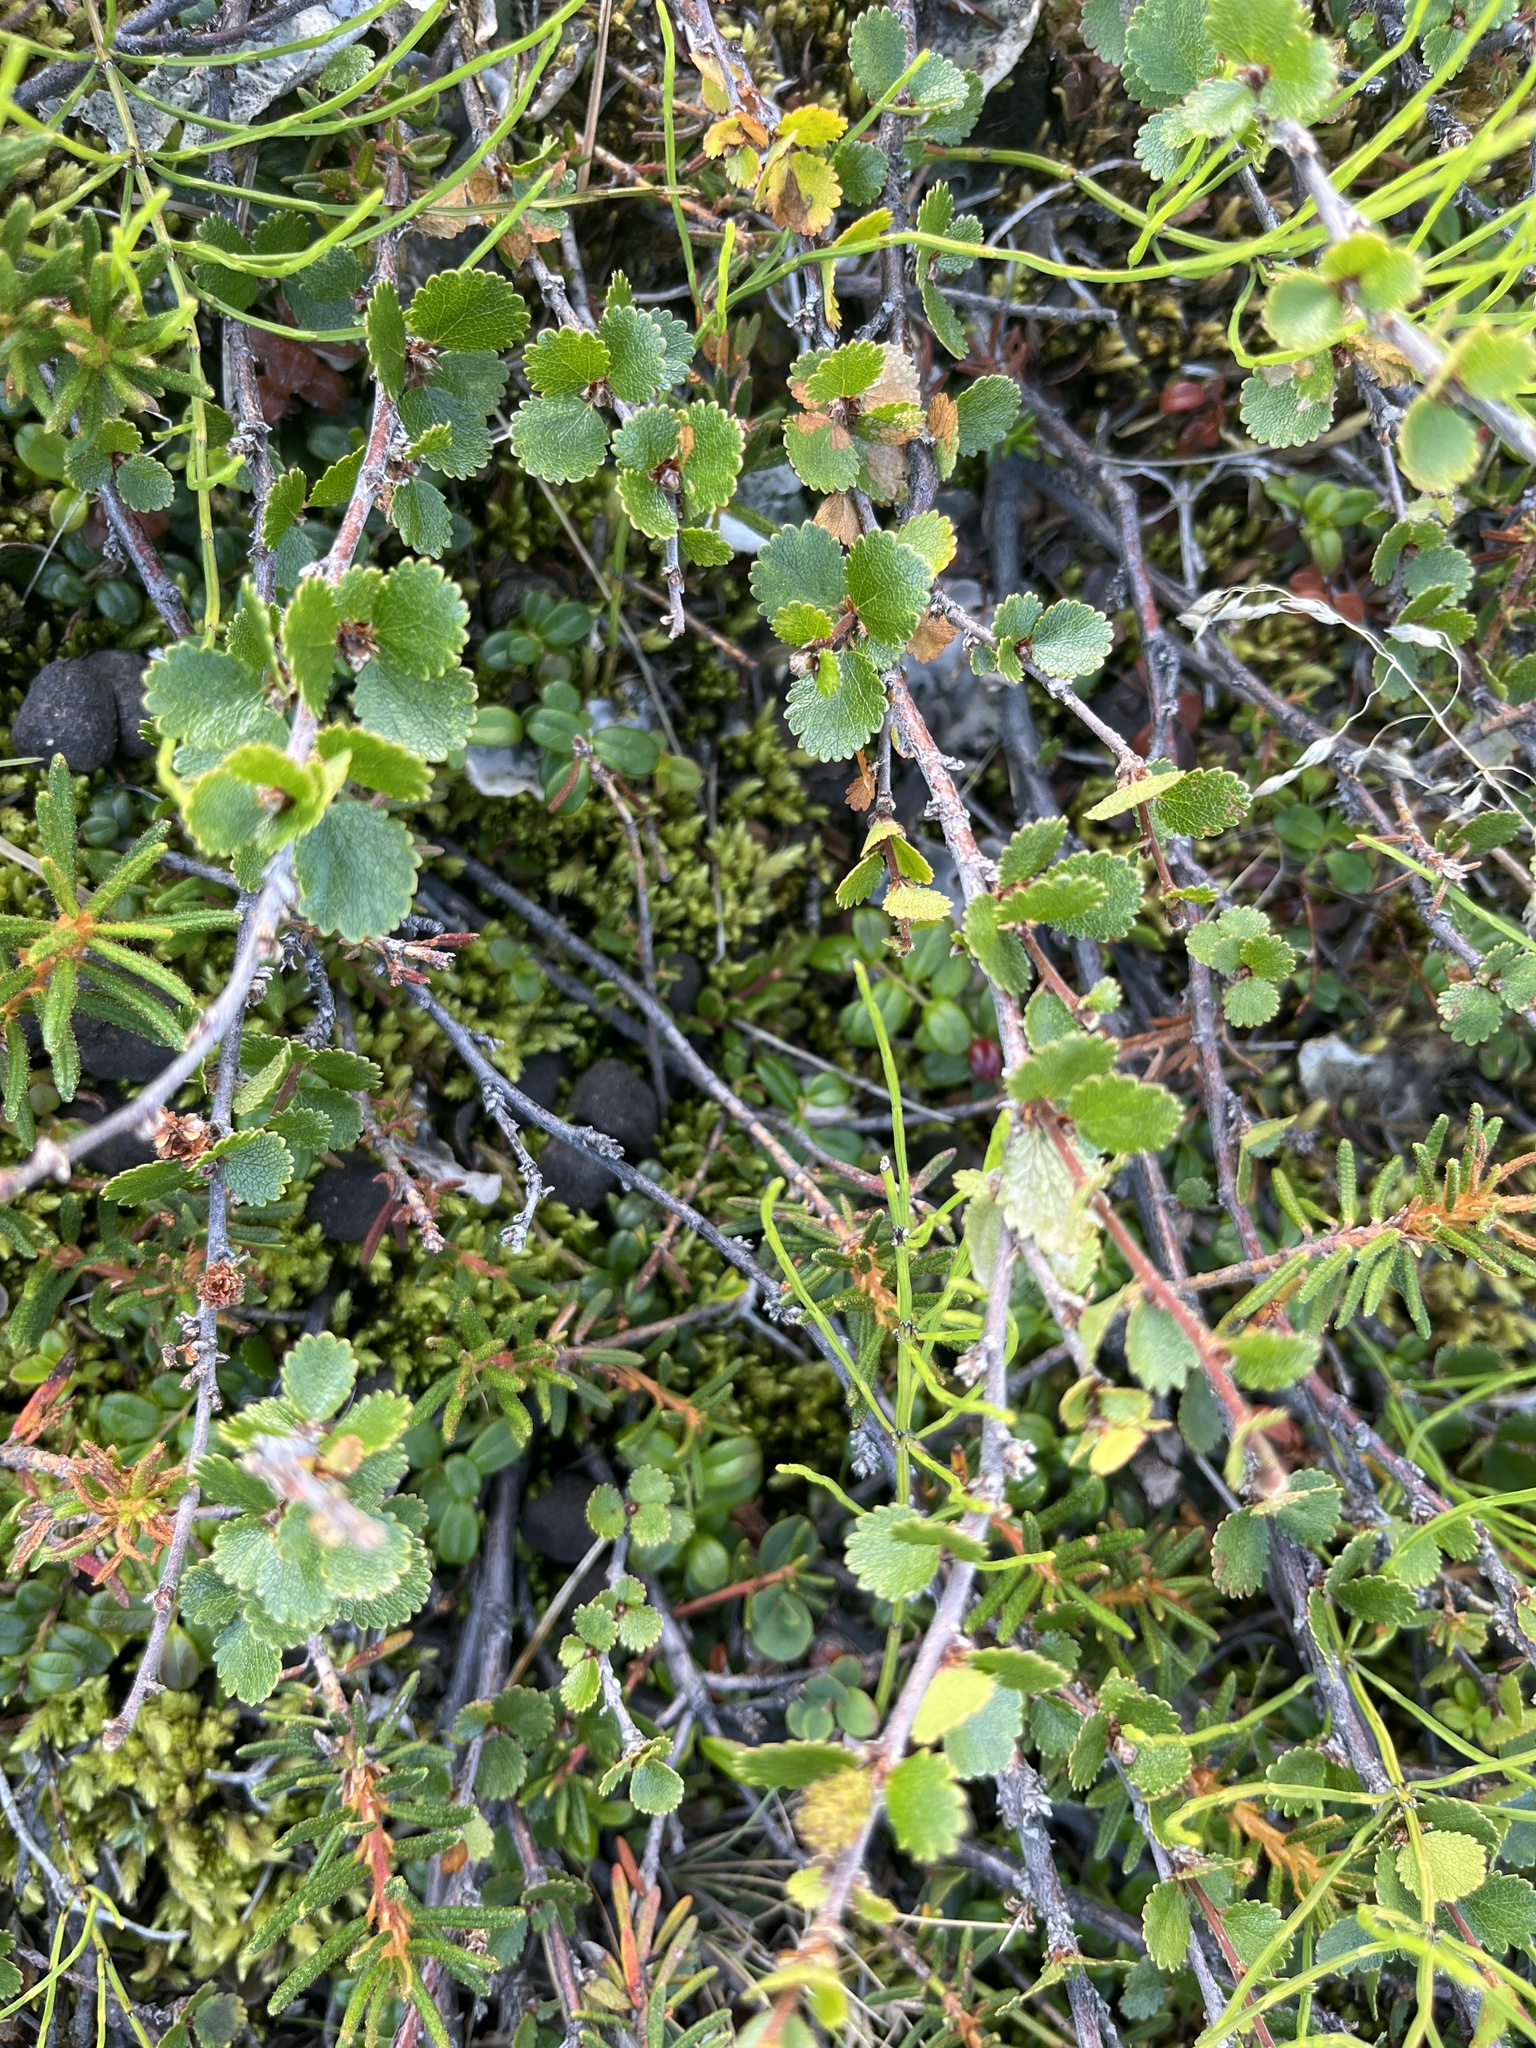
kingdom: Plantae
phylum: Tracheophyta
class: Magnoliopsida
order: Fagales
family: Betulaceae
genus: Betula
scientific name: Betula nana
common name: Arctic dwarf birch
